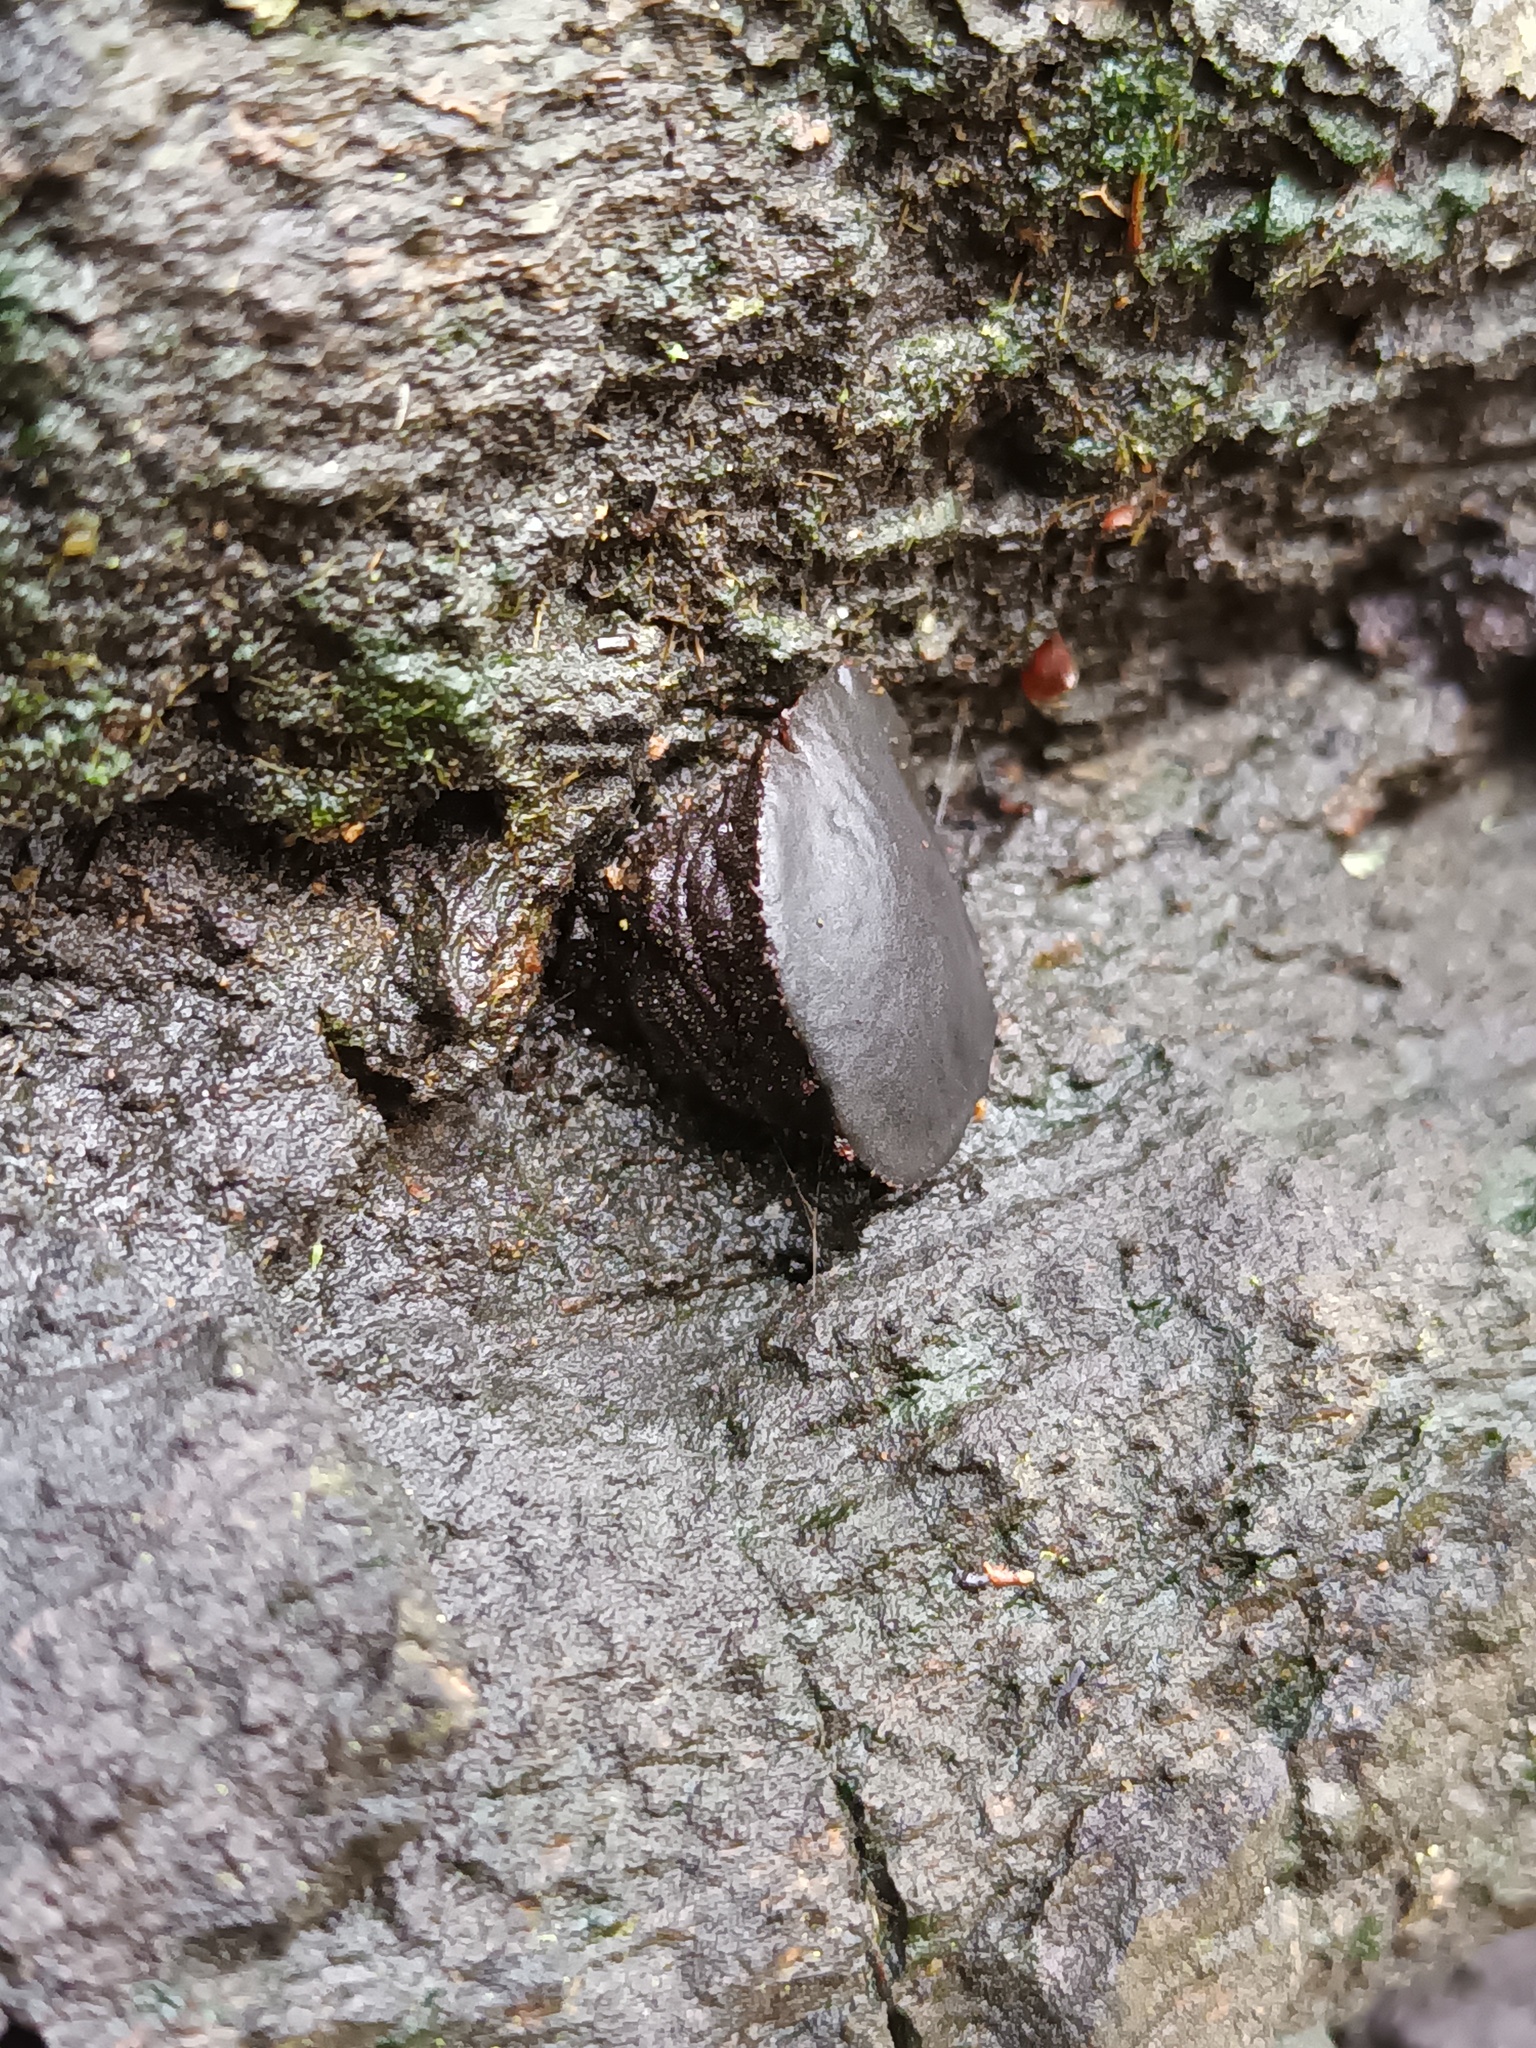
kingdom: Fungi
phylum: Ascomycota
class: Leotiomycetes
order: Phacidiales
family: Phacidiaceae
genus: Bulgaria
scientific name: Bulgaria inquinans
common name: Black bulgar
